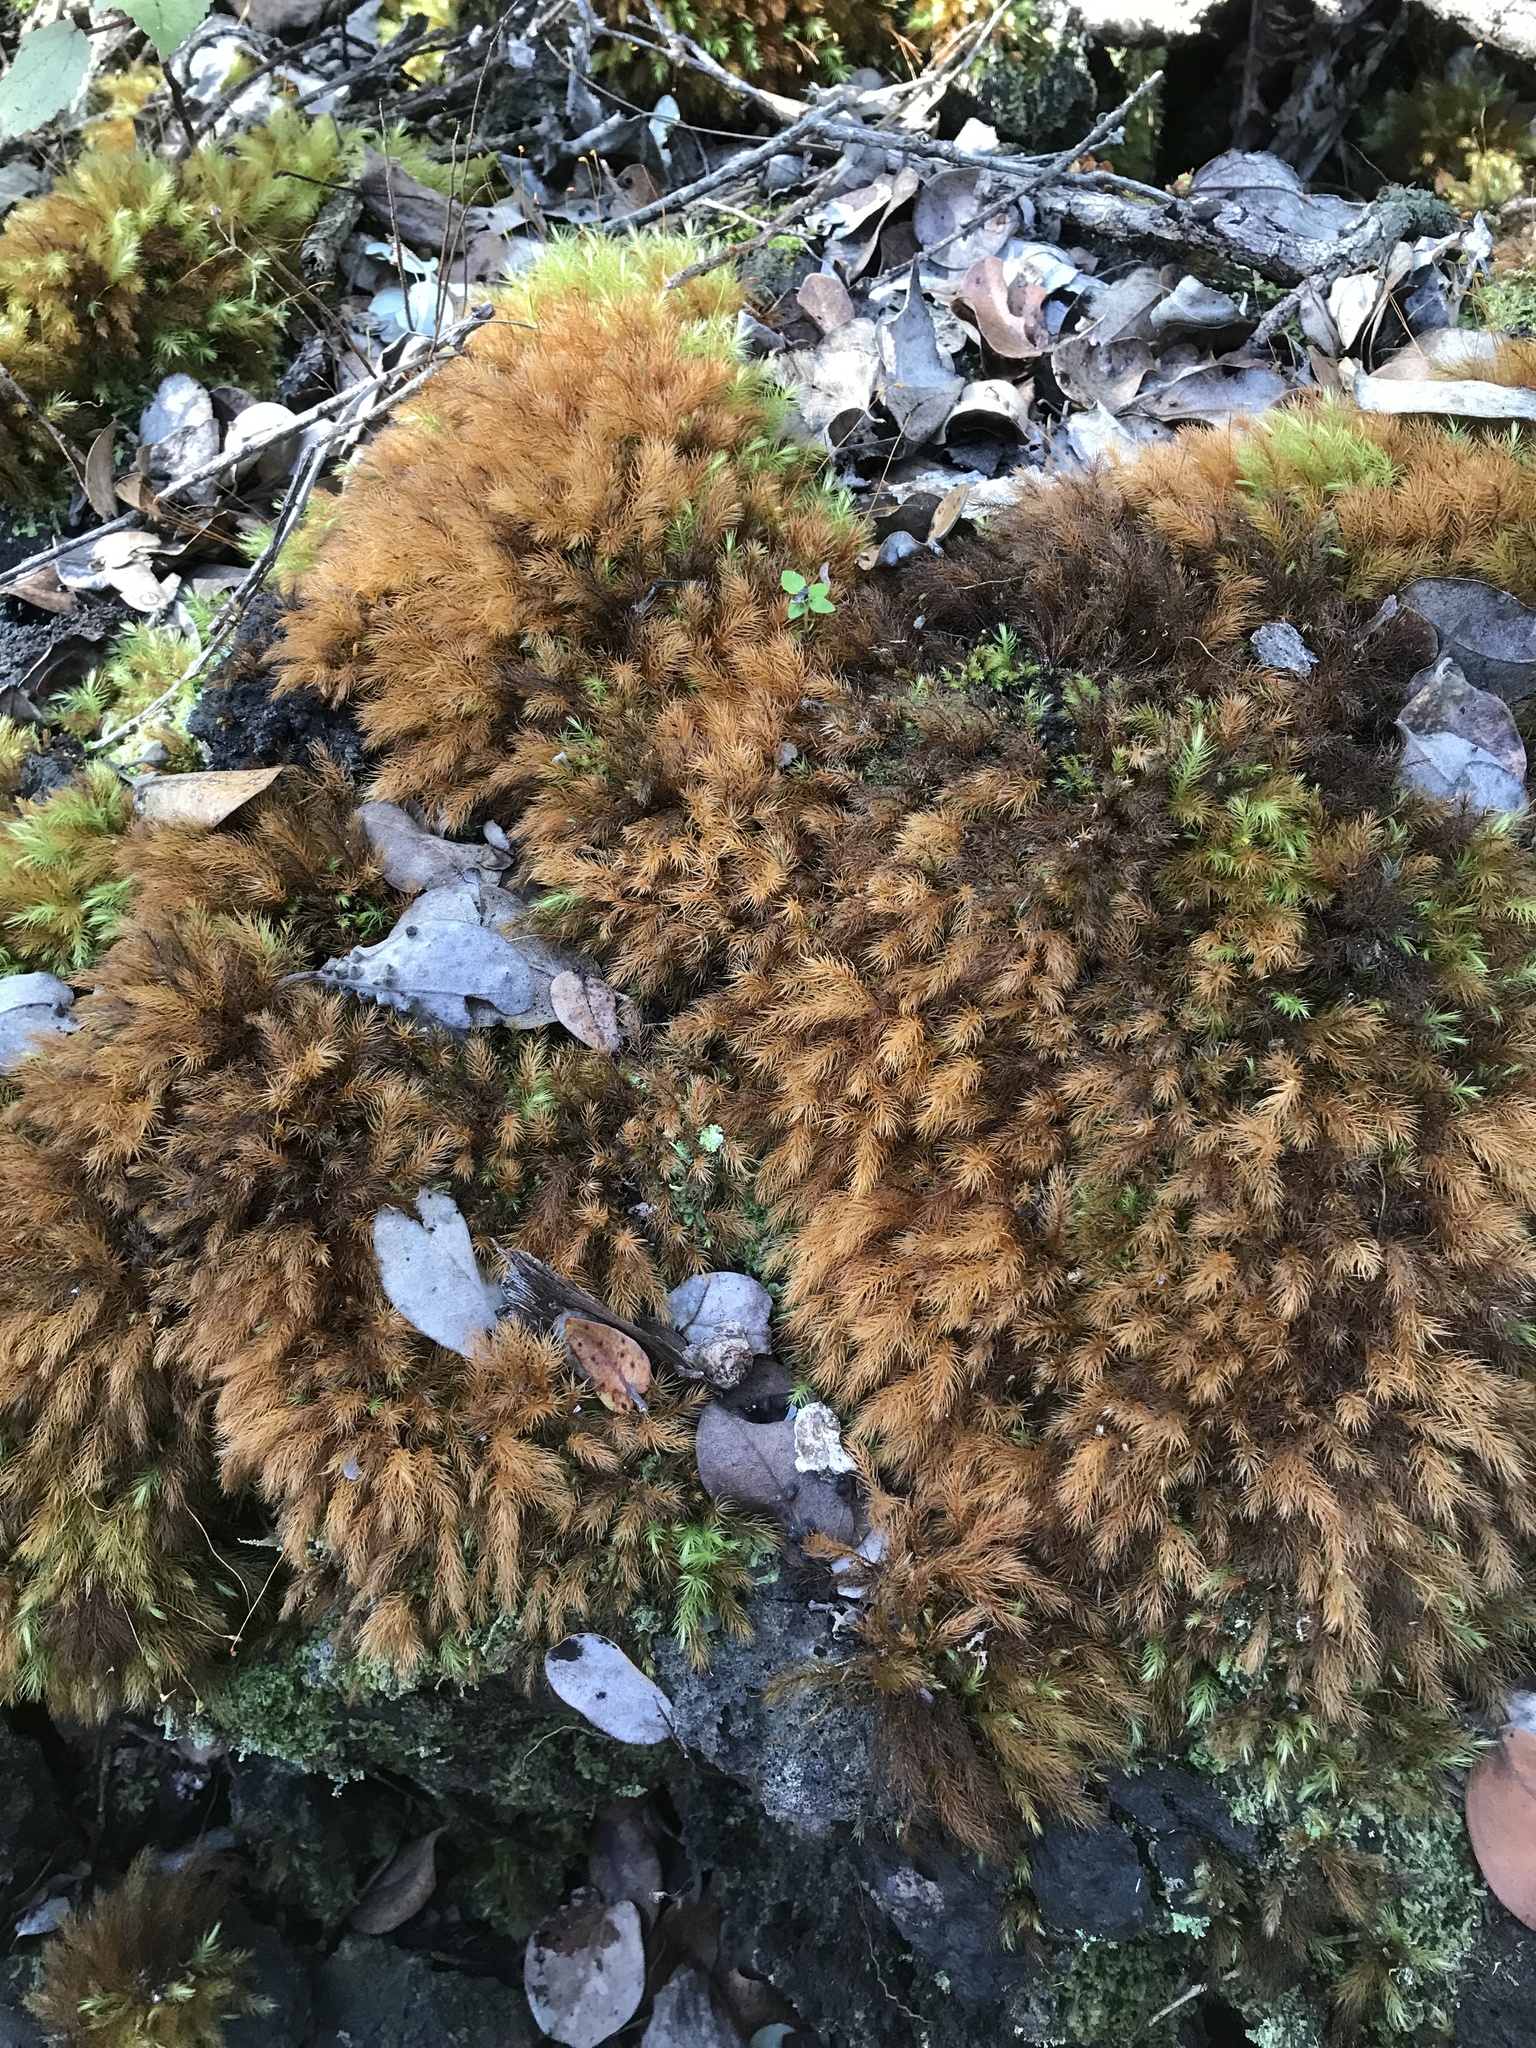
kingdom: Plantae
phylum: Bryophyta
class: Bryopsida
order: Rhizogoniales
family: Calomniaceae
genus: Pyrrhobryum
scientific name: Pyrrhobryum spiniforme
